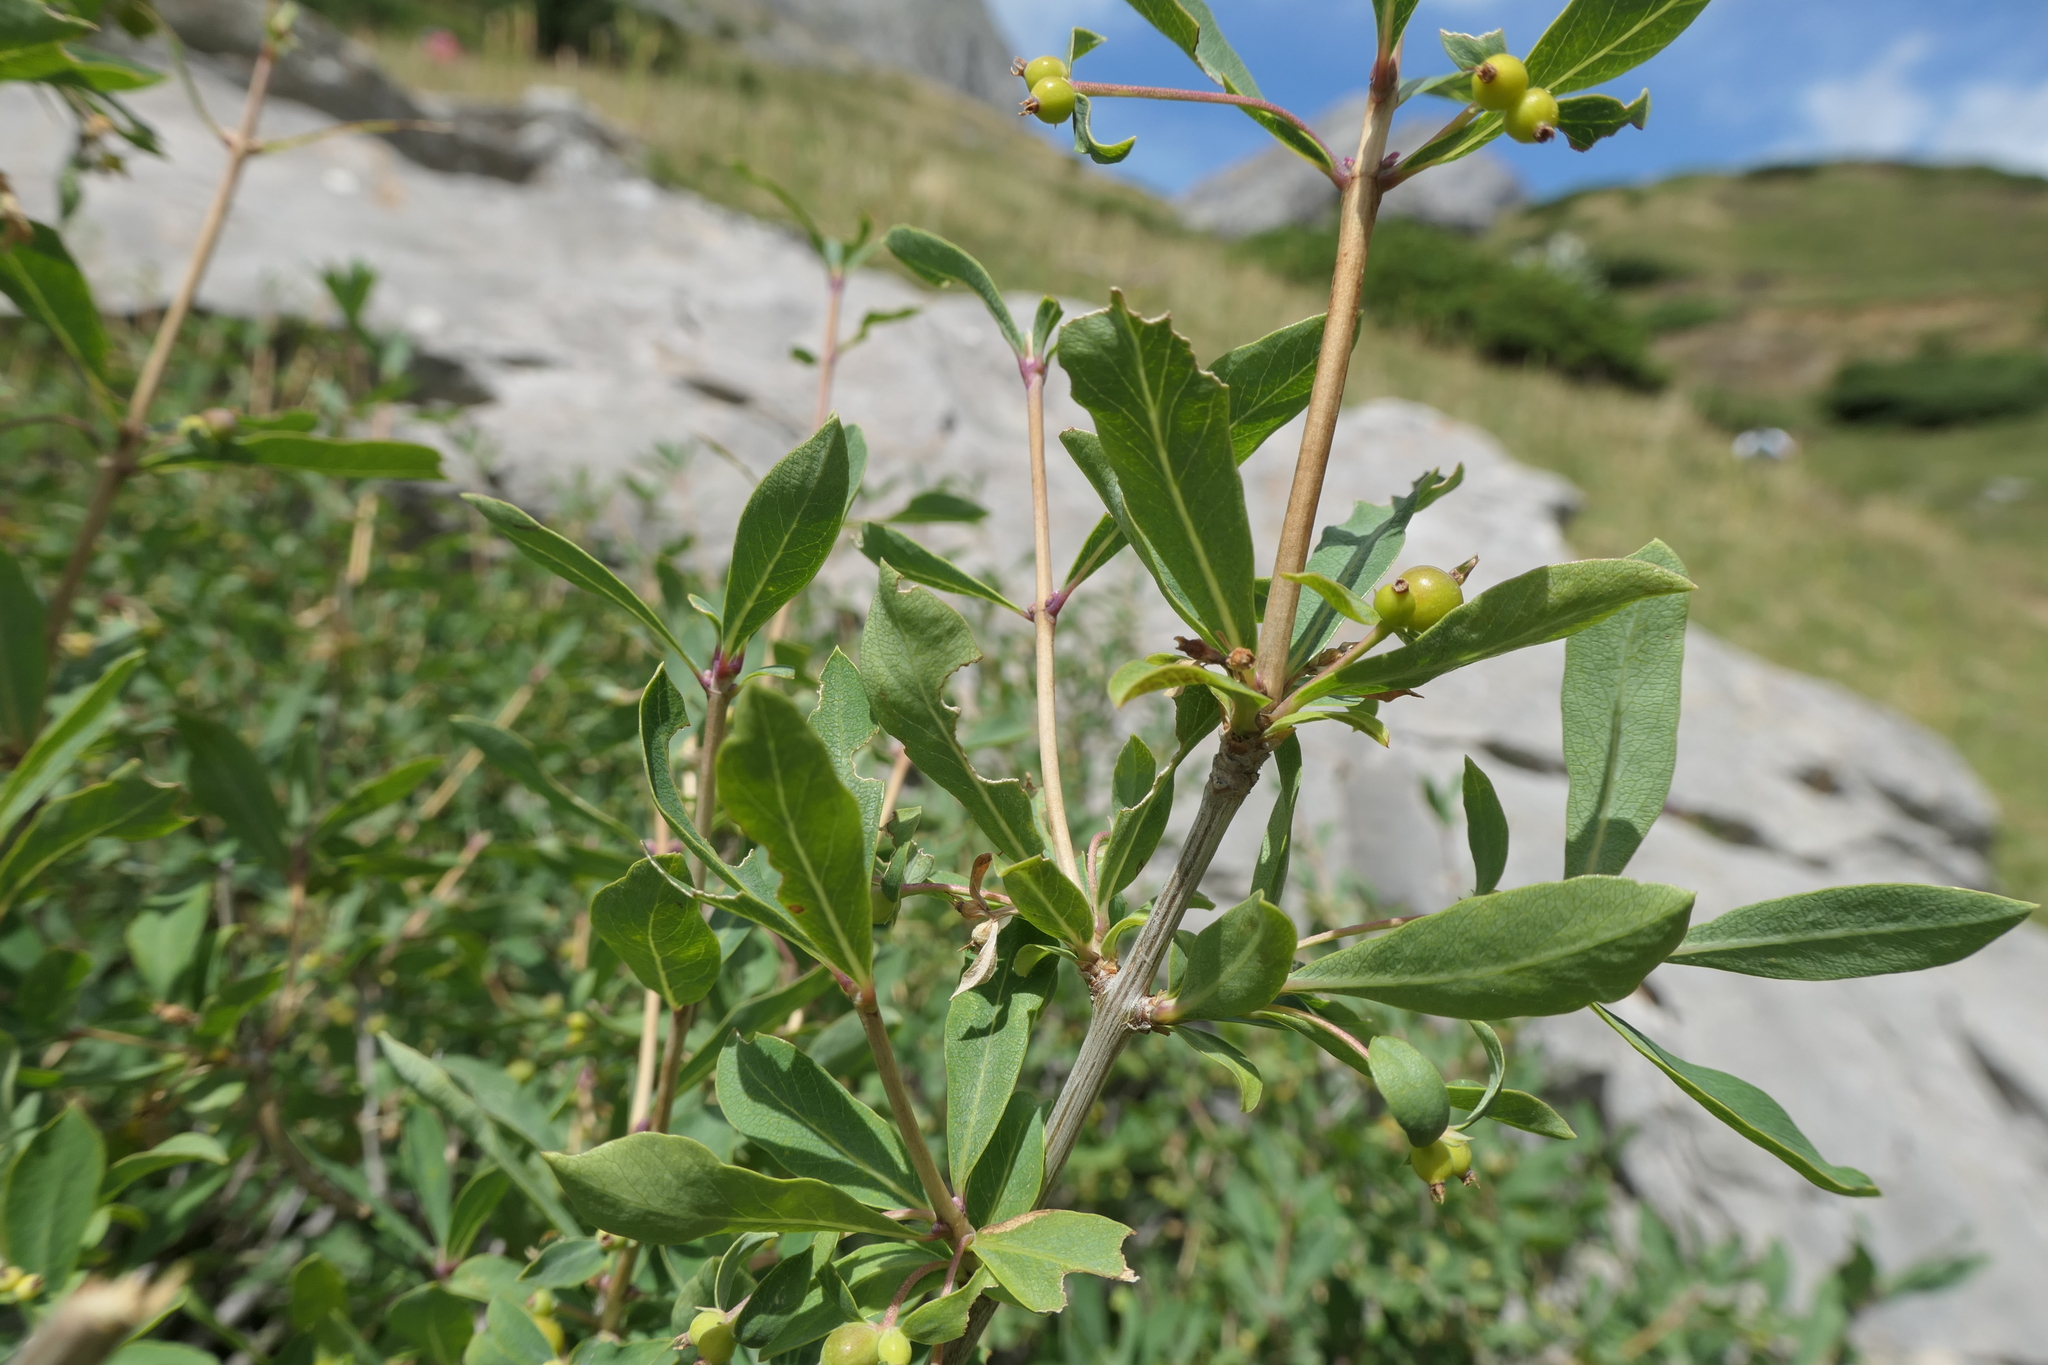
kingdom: Plantae
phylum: Tracheophyta
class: Magnoliopsida
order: Dipsacales
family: Caprifoliaceae
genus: Lonicera
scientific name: Lonicera pyrenaica
